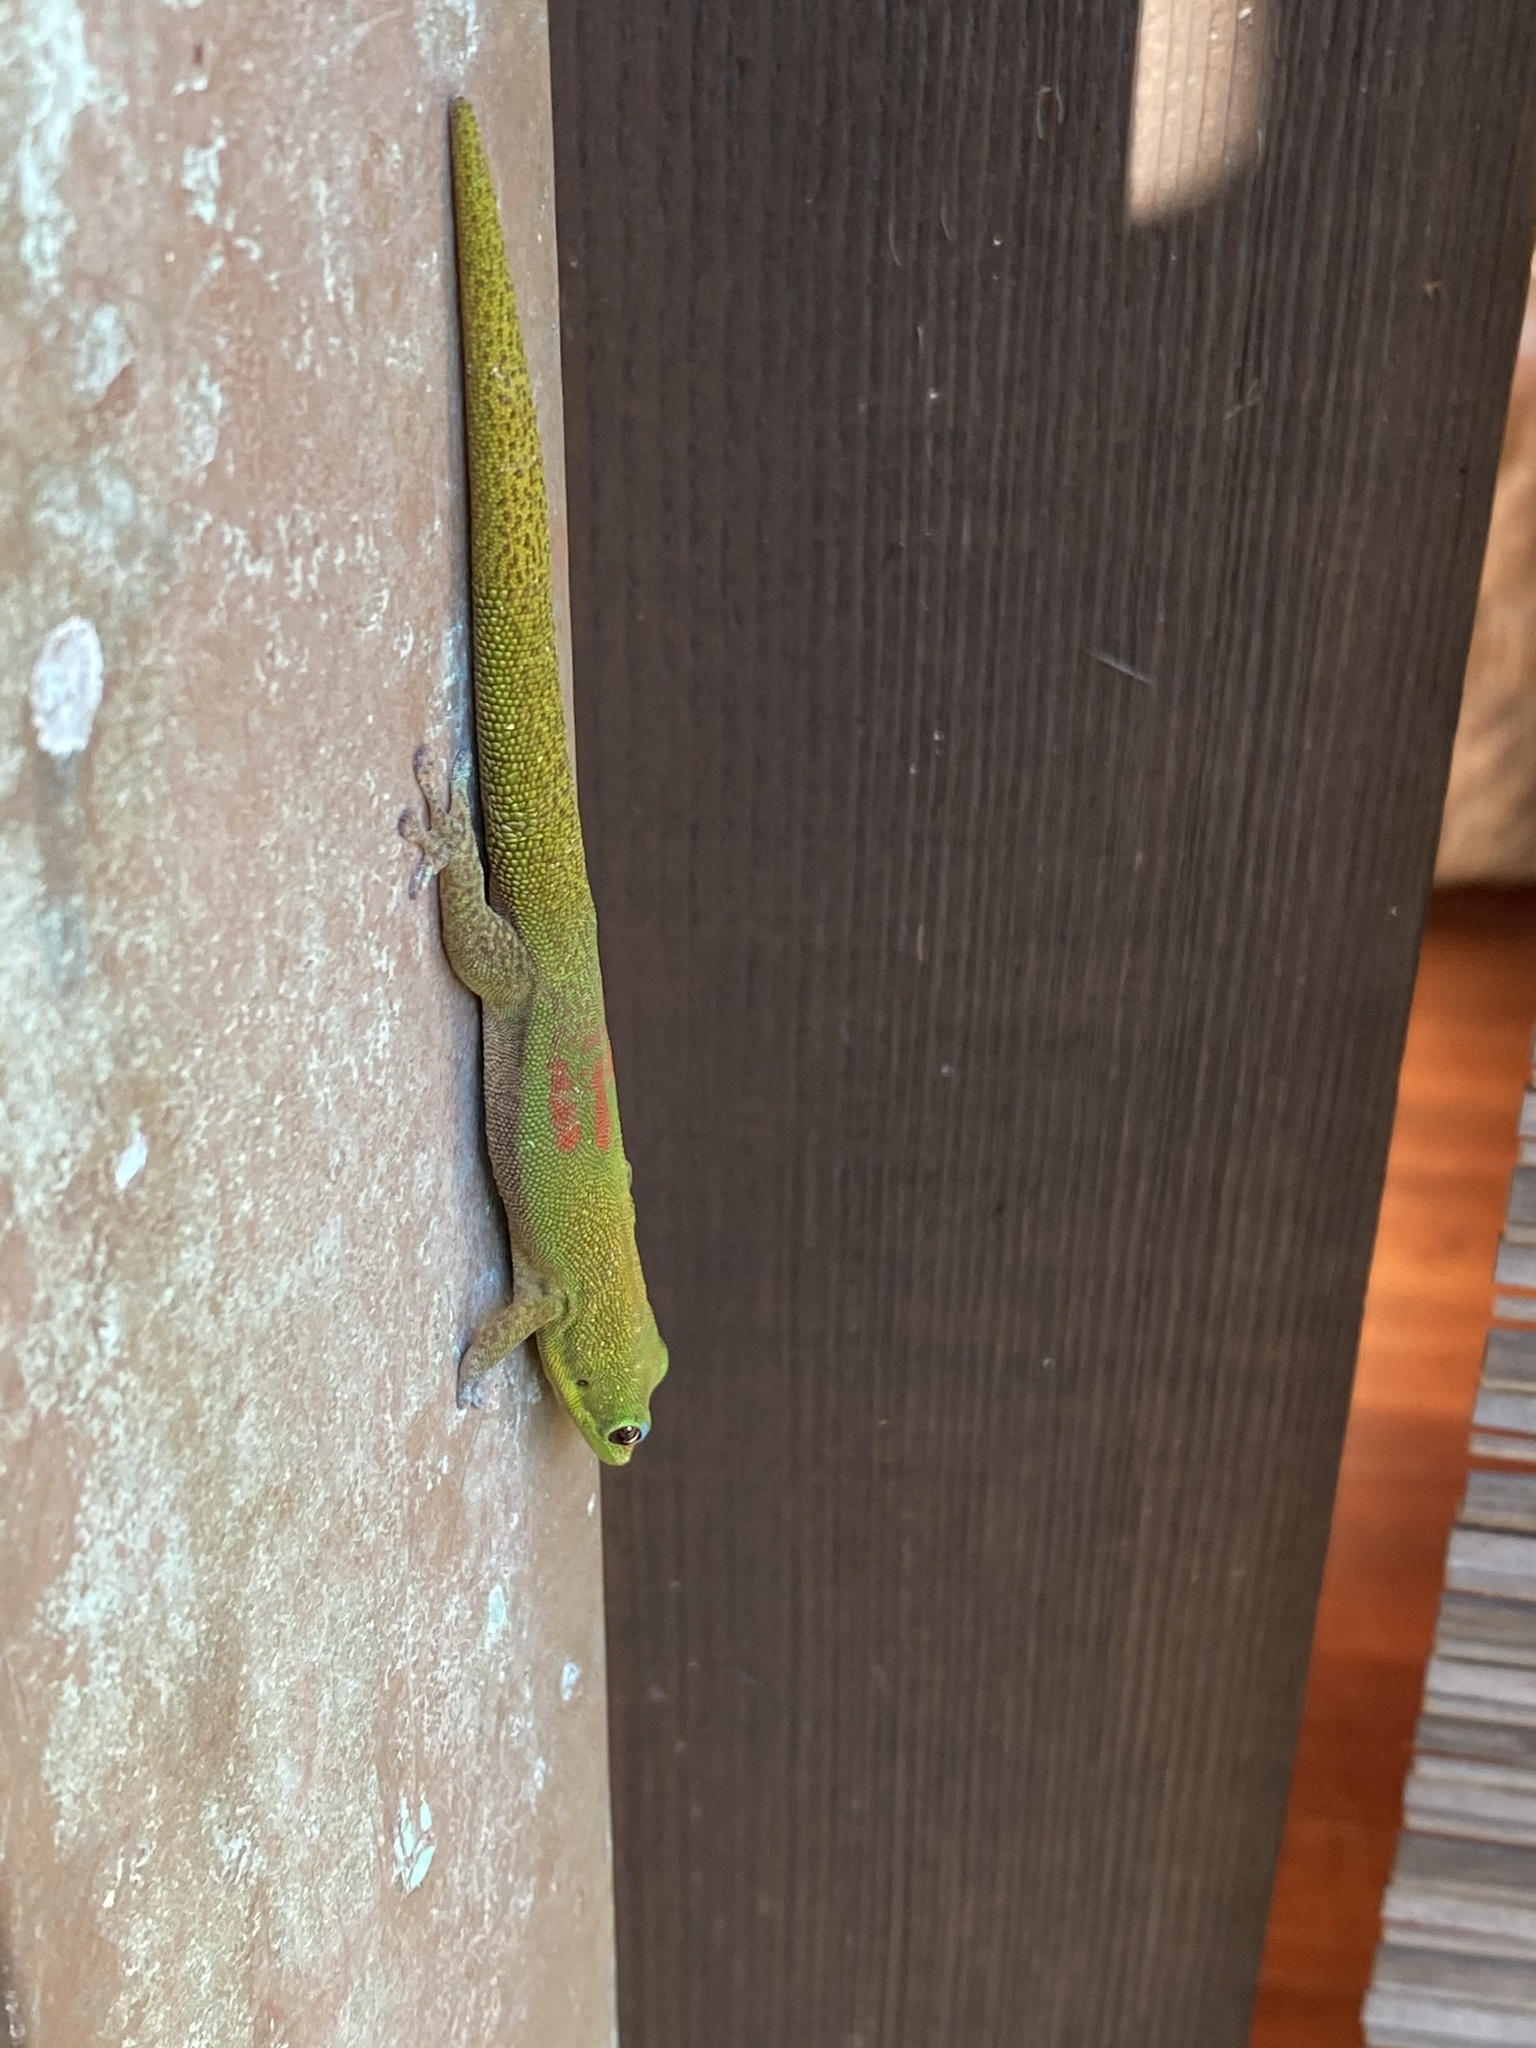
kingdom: Animalia
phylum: Chordata
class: Squamata
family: Gekkonidae
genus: Phelsuma
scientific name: Phelsuma laticauda
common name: Gold dust day gecko
